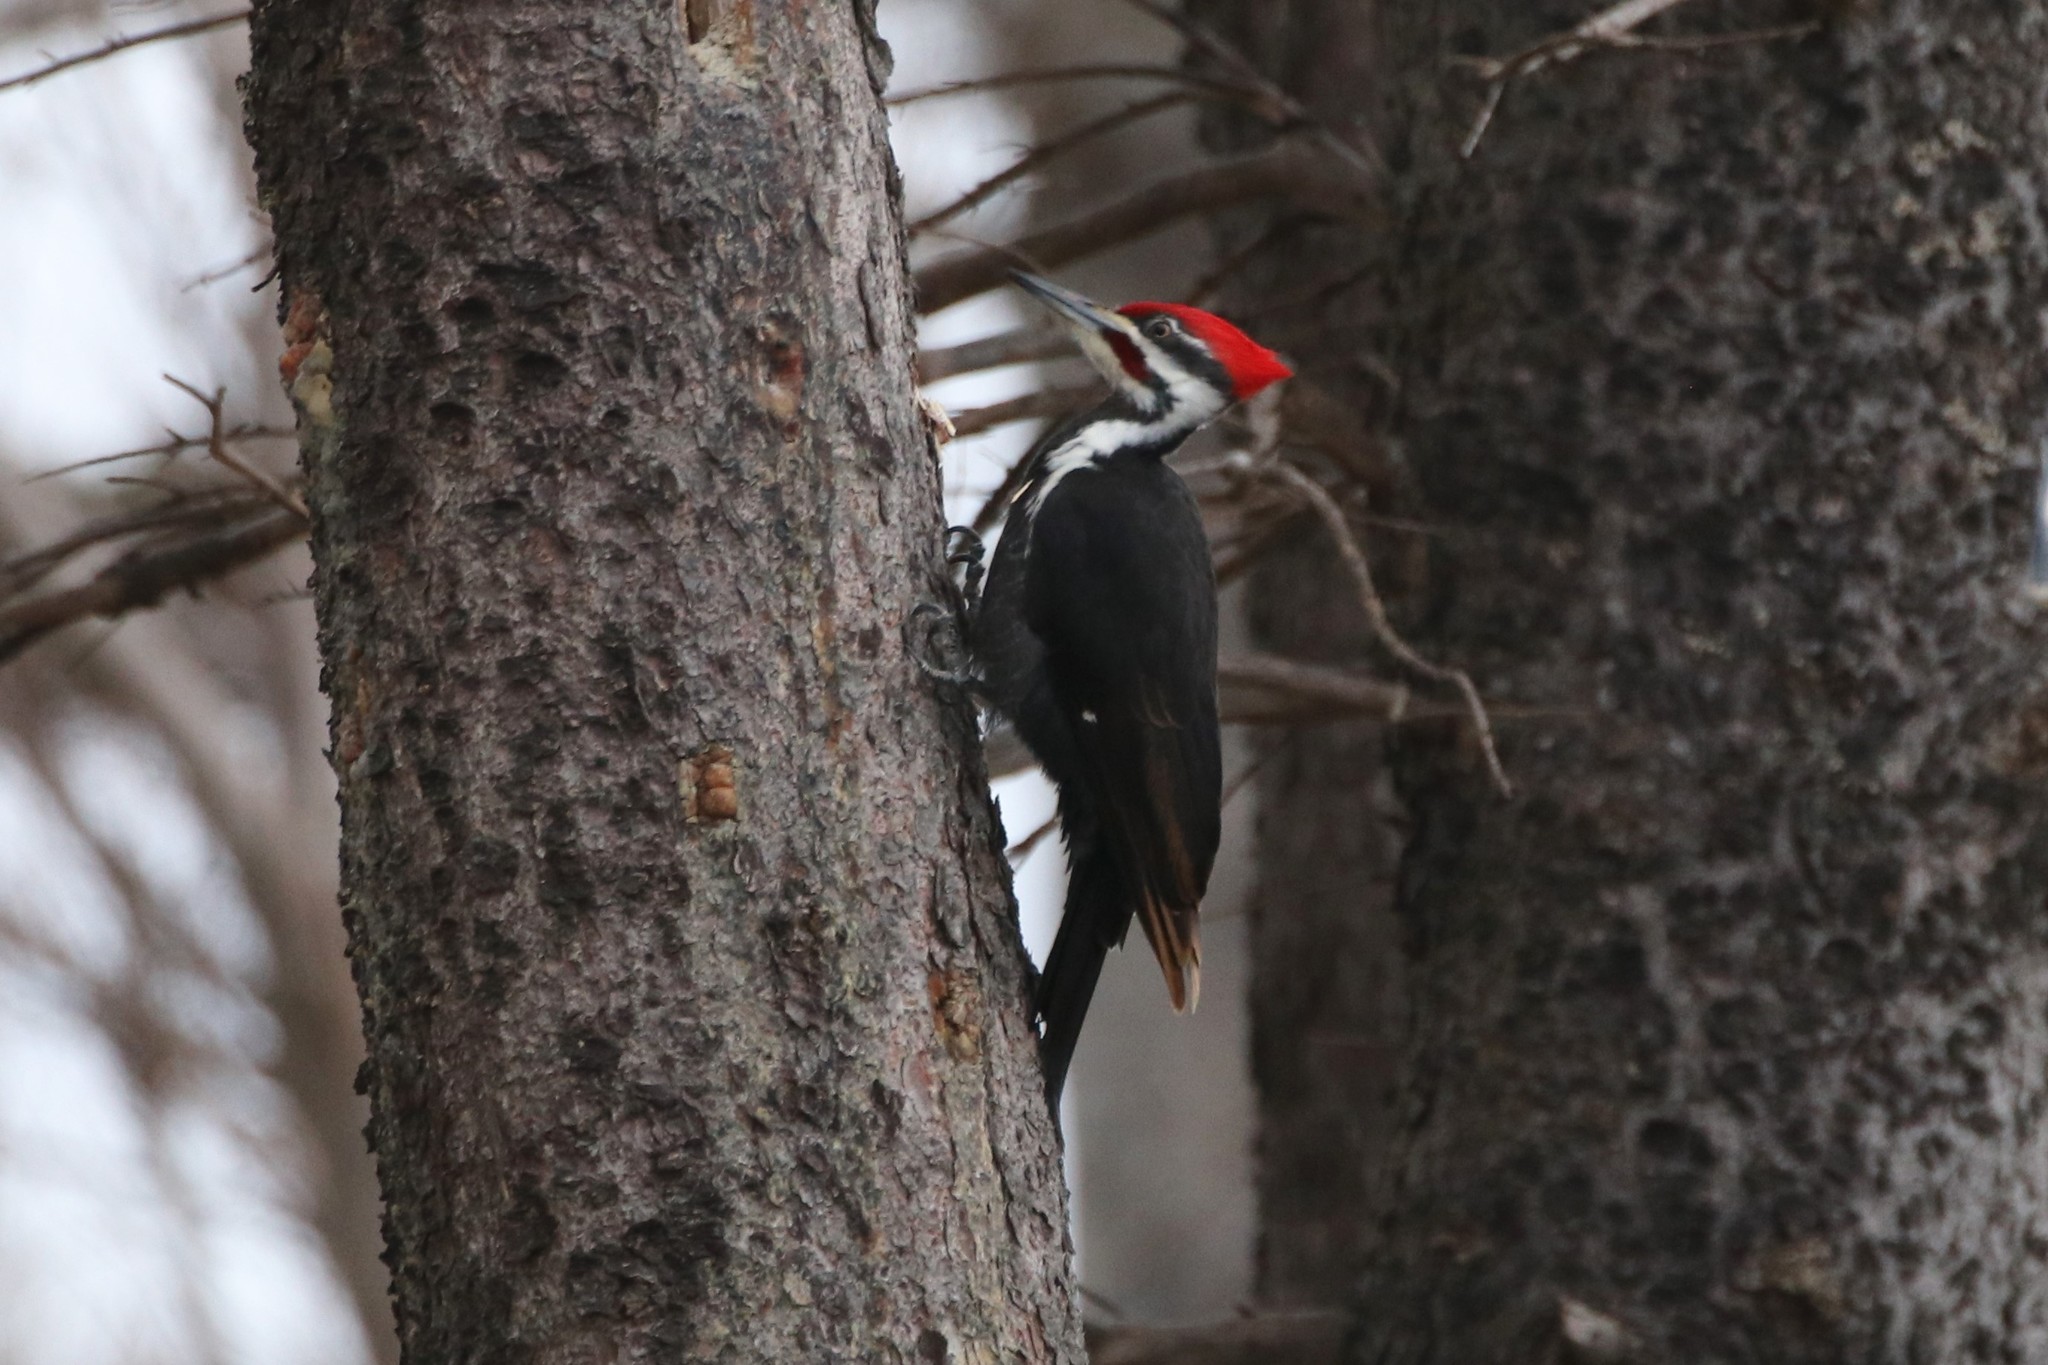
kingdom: Animalia
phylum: Chordata
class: Aves
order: Piciformes
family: Picidae
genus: Dryocopus
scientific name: Dryocopus pileatus
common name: Pileated woodpecker
